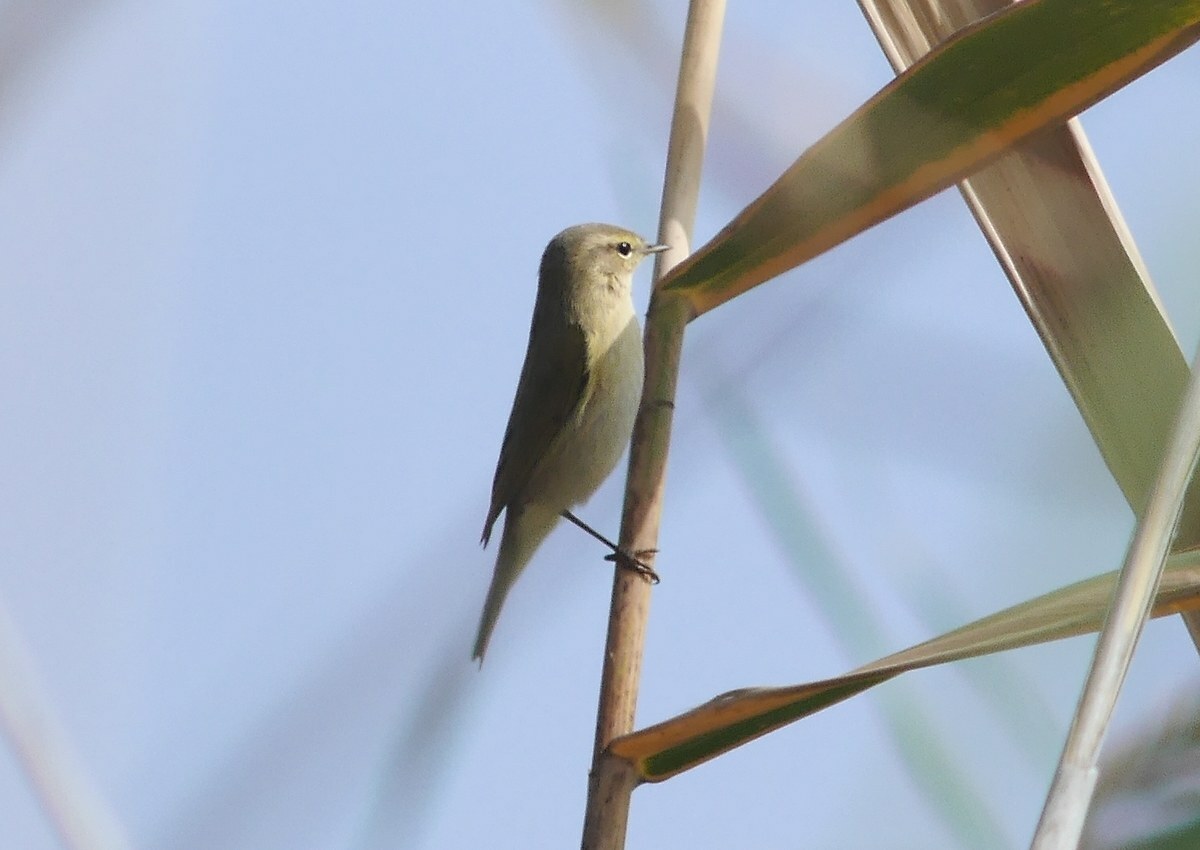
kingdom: Animalia
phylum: Chordata
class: Aves
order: Passeriformes
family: Phylloscopidae
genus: Phylloscopus
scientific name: Phylloscopus collybita
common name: Common chiffchaff
